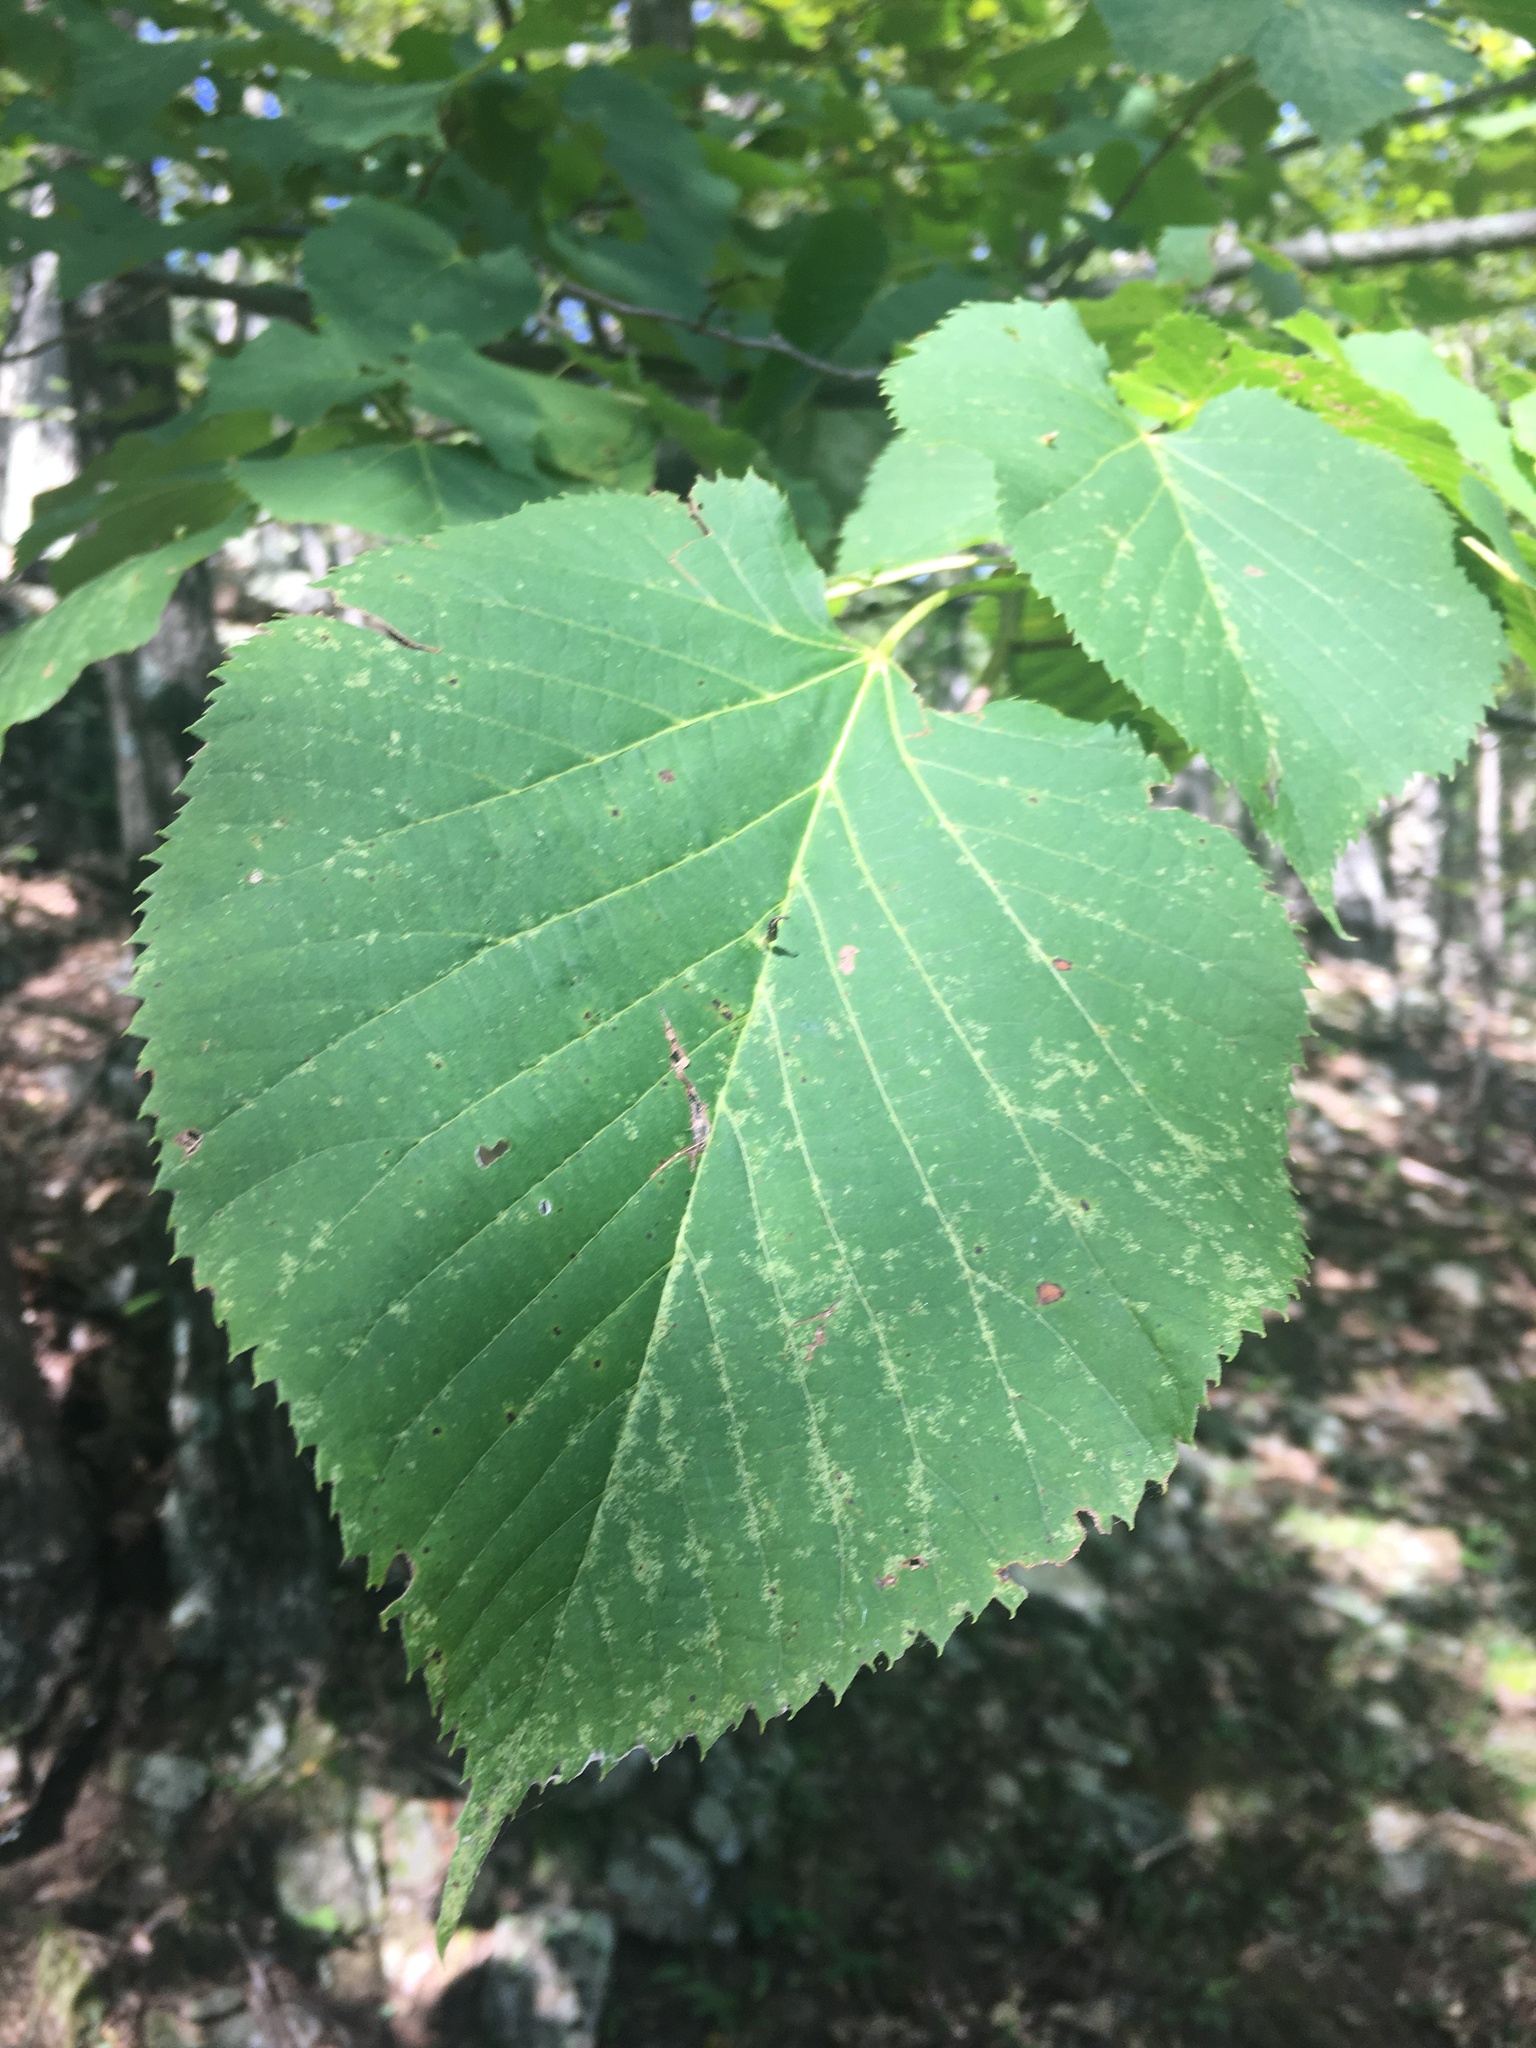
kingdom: Plantae
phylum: Tracheophyta
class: Magnoliopsida
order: Malvales
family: Malvaceae
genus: Tilia
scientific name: Tilia americana
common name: Basswood
